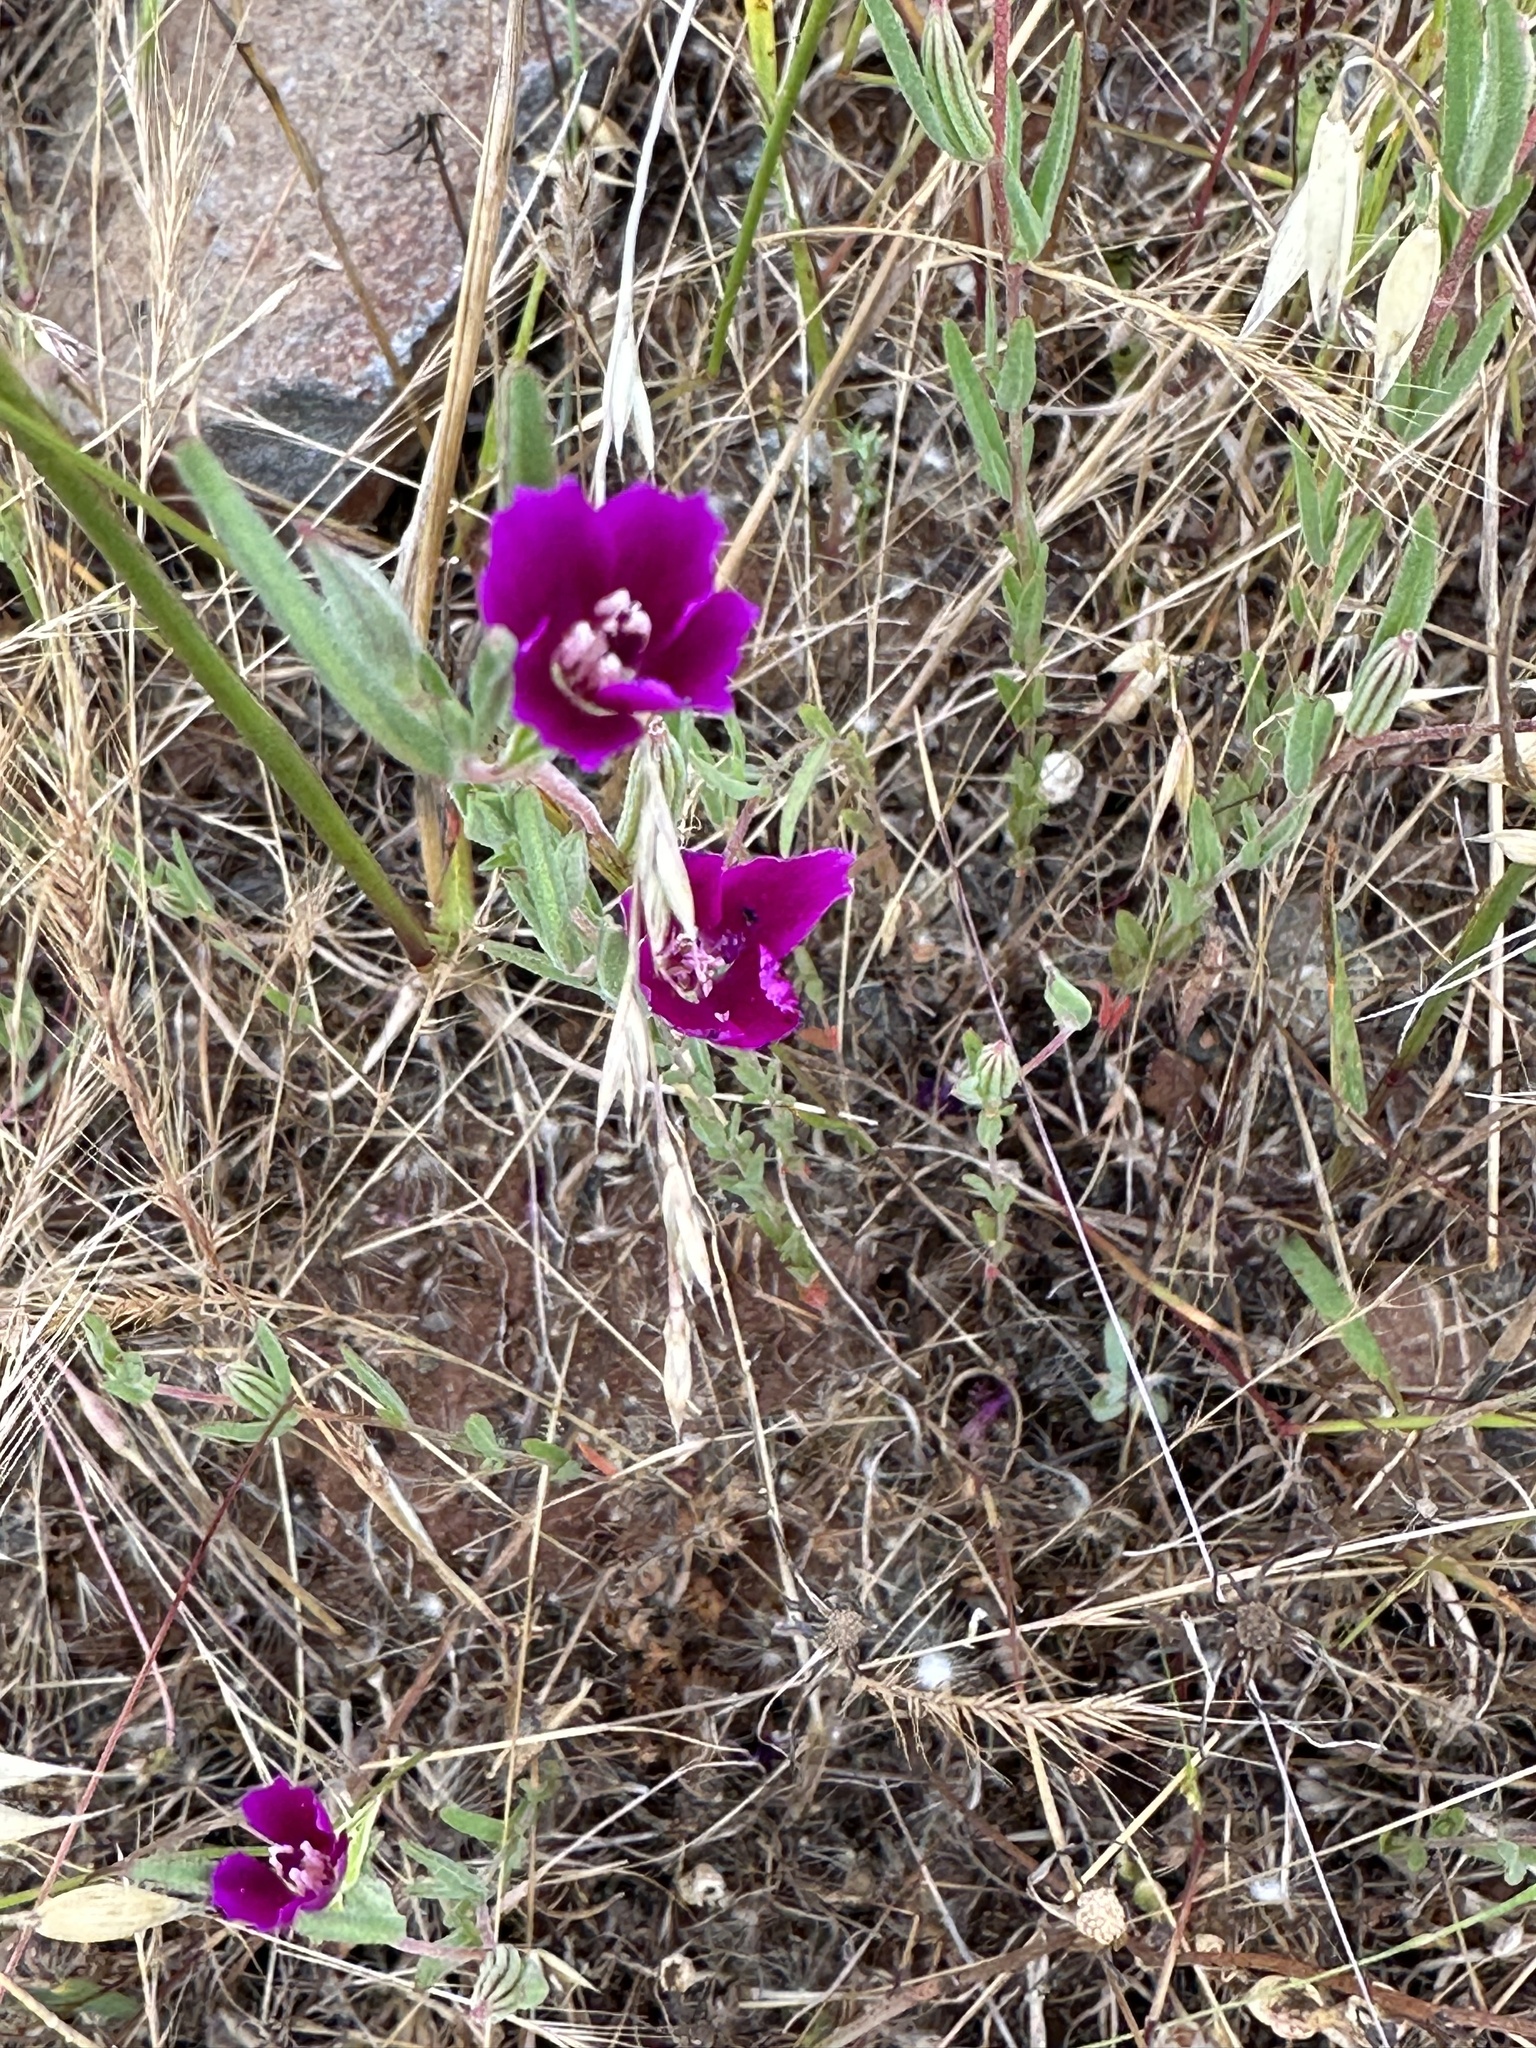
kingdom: Plantae
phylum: Tracheophyta
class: Magnoliopsida
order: Myrtales
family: Onagraceae
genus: Clarkia
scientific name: Clarkia purpurea
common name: Purple clarkia
